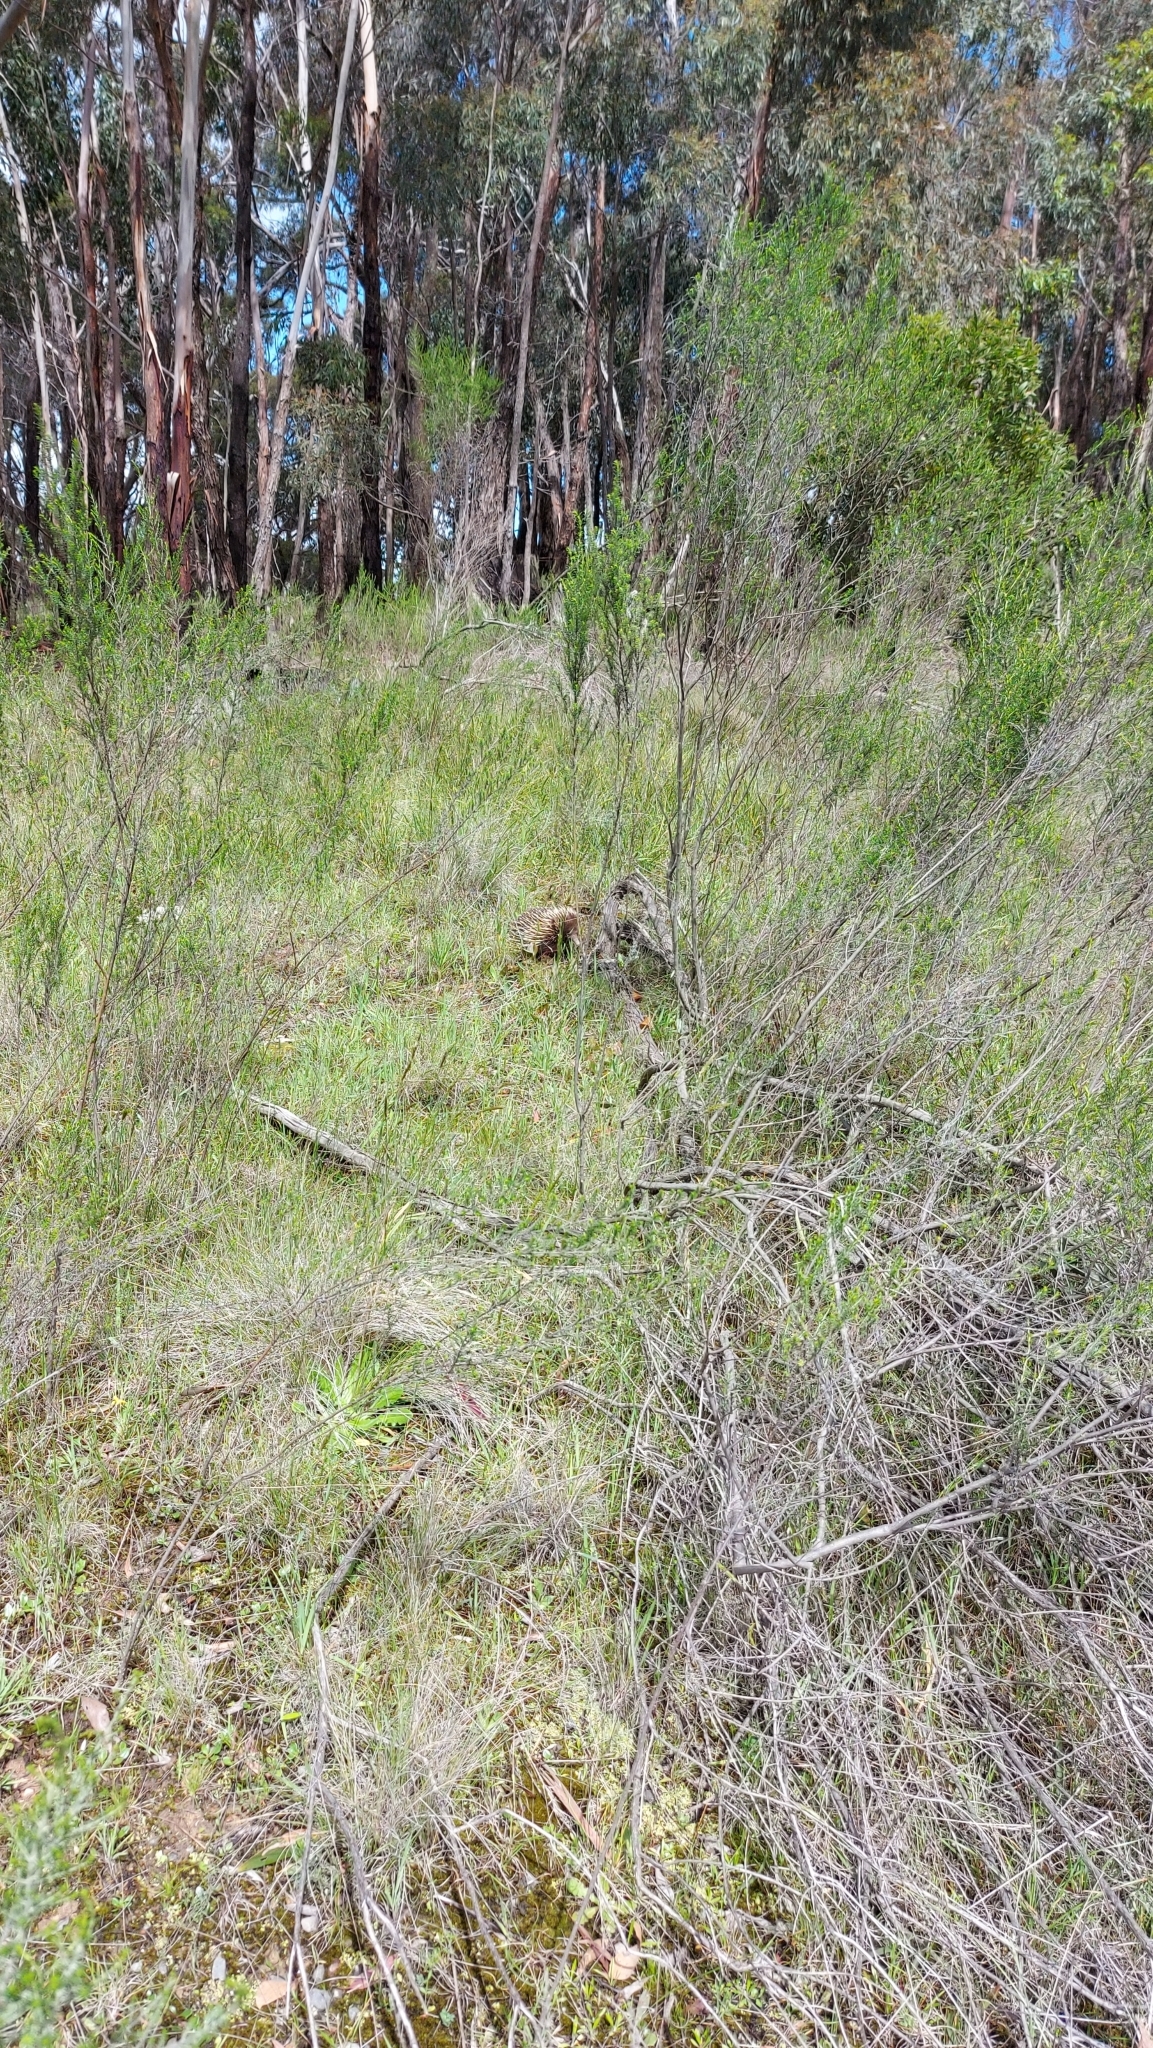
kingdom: Animalia
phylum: Chordata
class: Mammalia
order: Monotremata
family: Tachyglossidae
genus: Tachyglossus
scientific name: Tachyglossus aculeatus
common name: Short-beaked echidna
